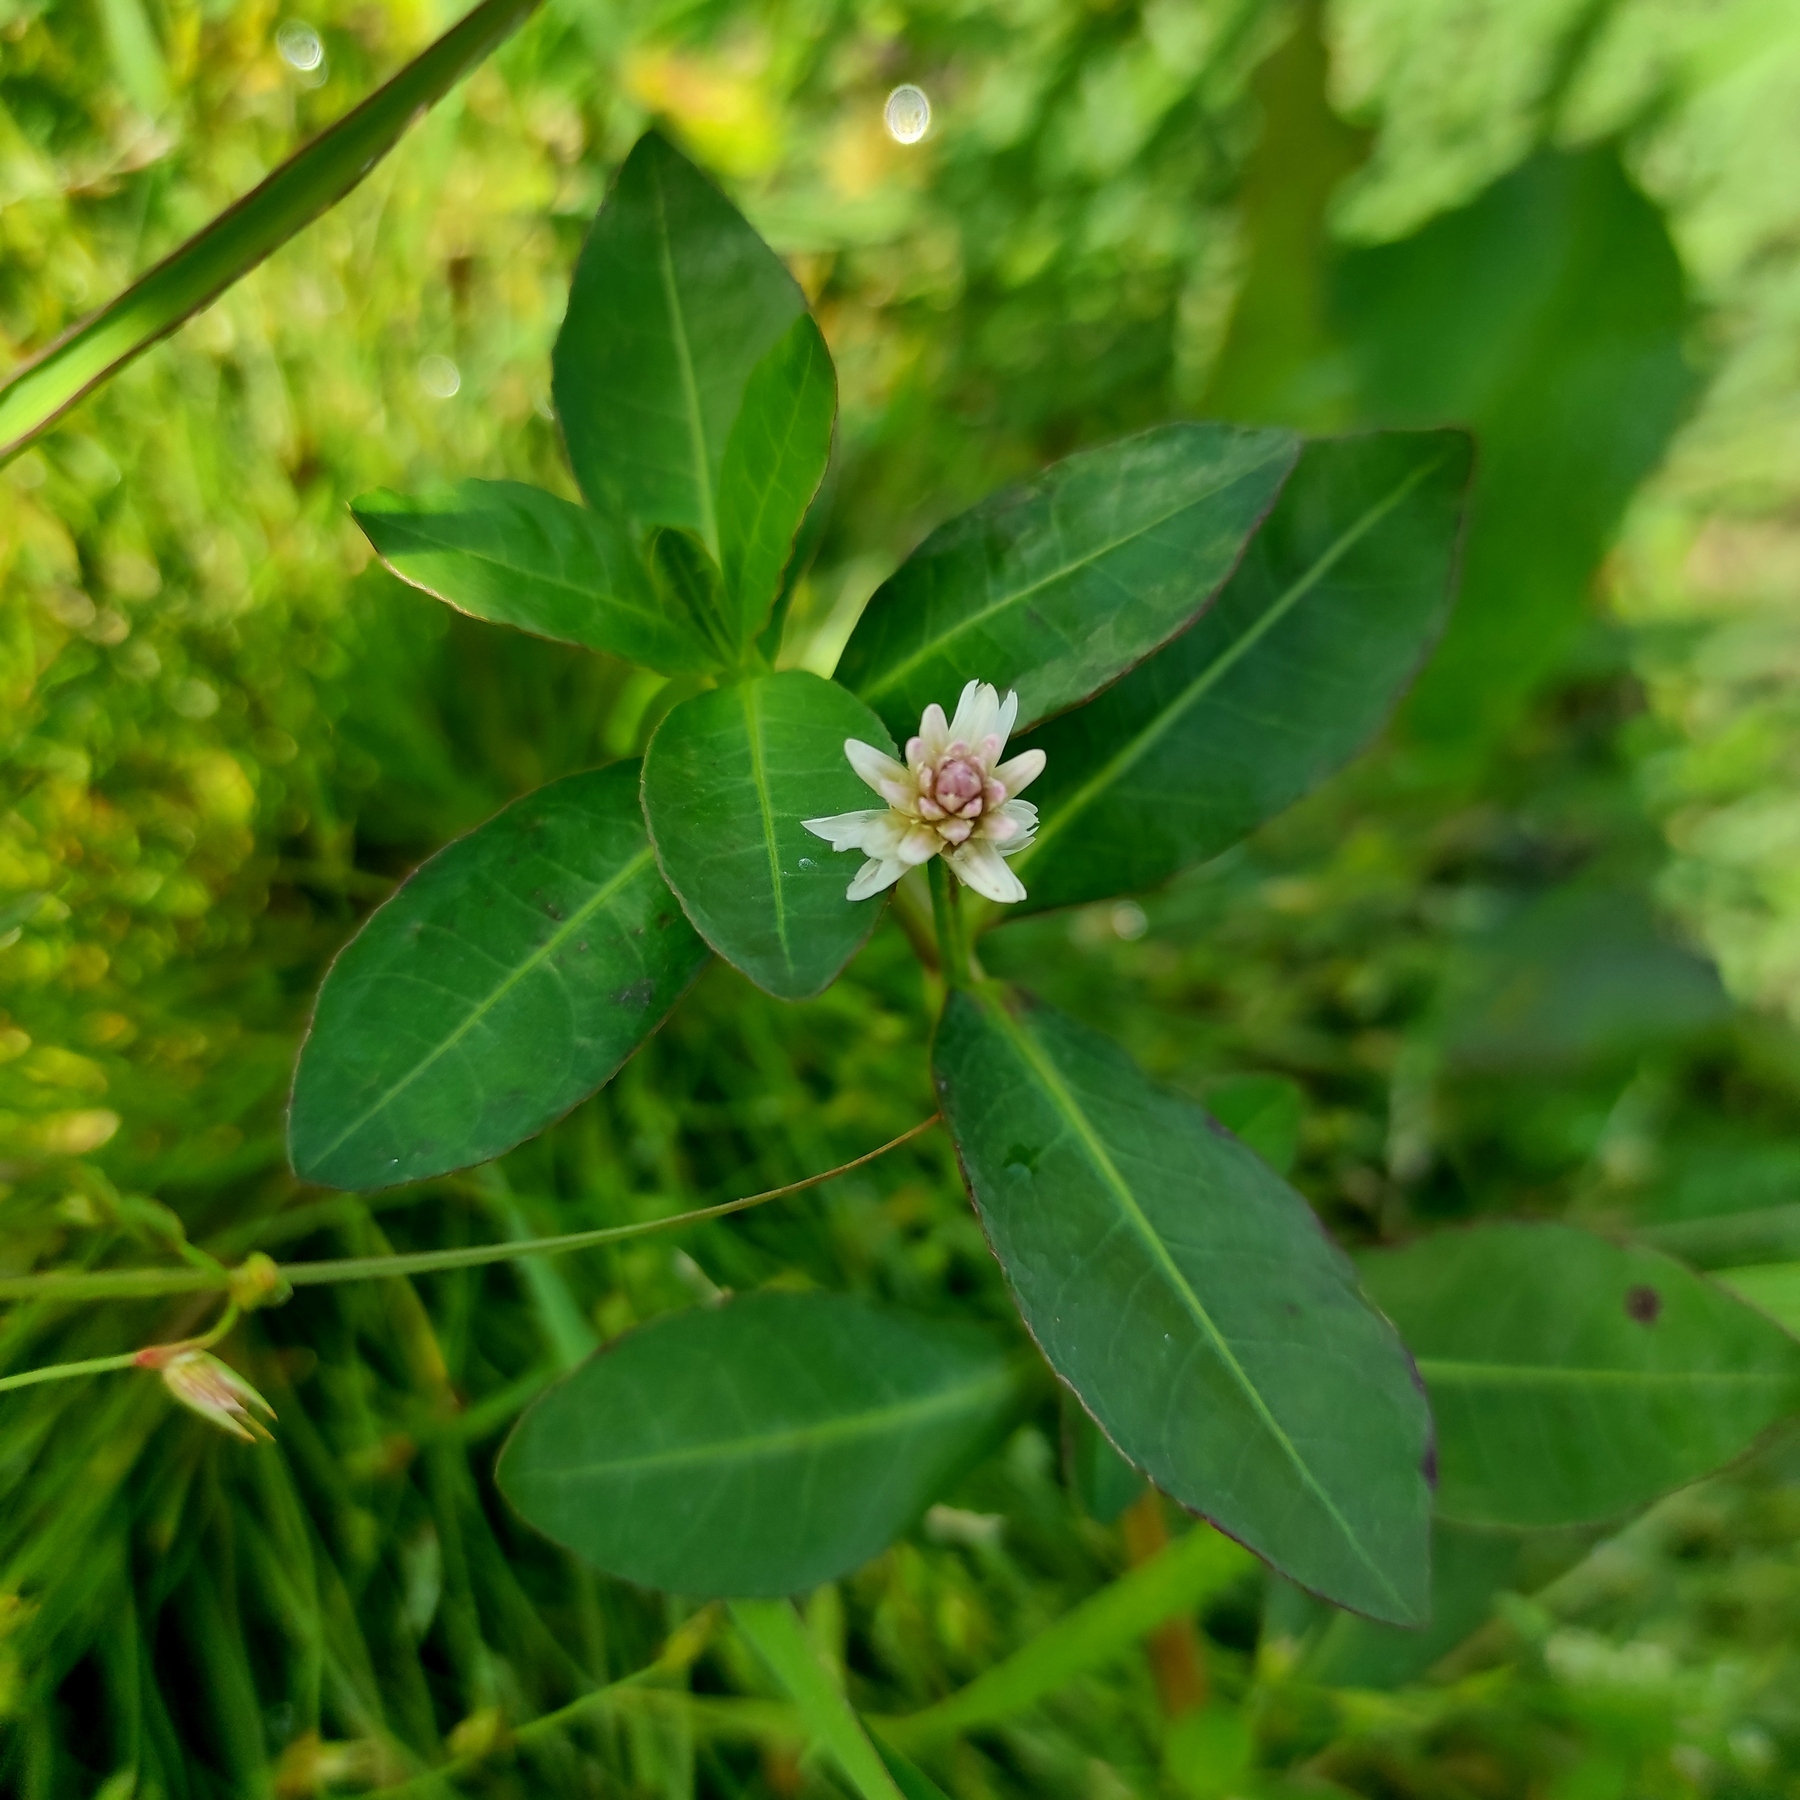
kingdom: Plantae
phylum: Tracheophyta
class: Magnoliopsida
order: Caryophyllales
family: Amaranthaceae
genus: Alternanthera
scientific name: Alternanthera philoxeroides
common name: Alligatorweed
